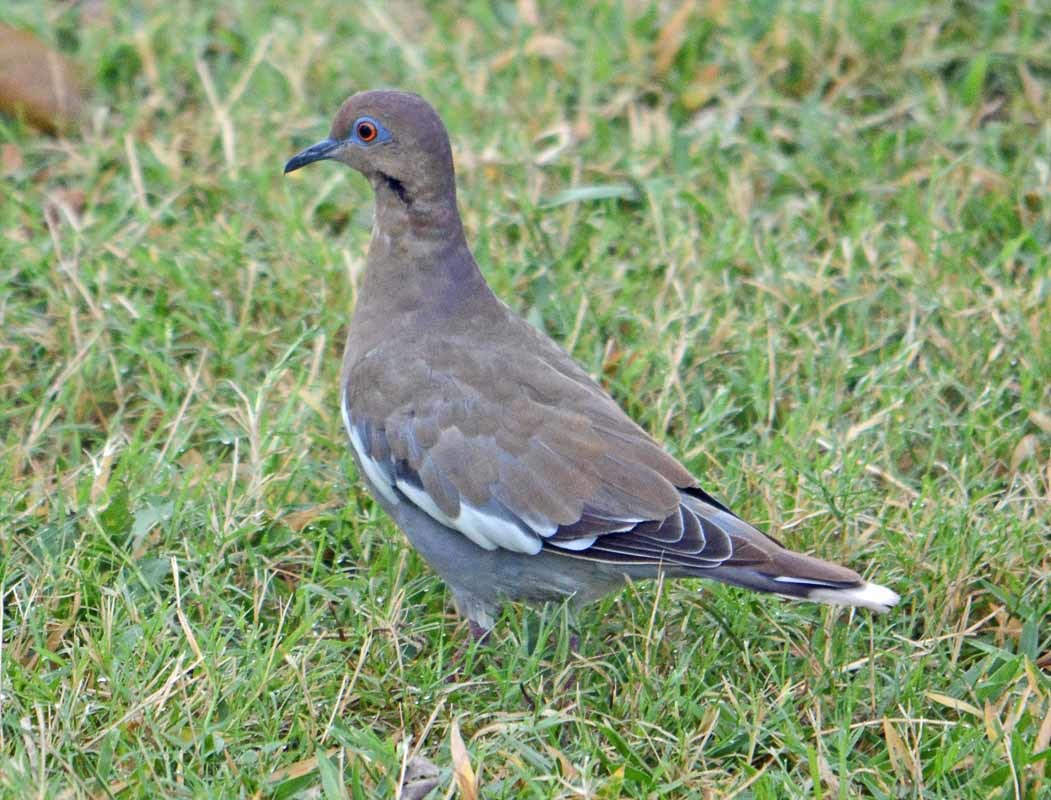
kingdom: Animalia
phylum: Chordata
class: Aves
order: Columbiformes
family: Columbidae
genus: Zenaida
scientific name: Zenaida asiatica
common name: White-winged dove
